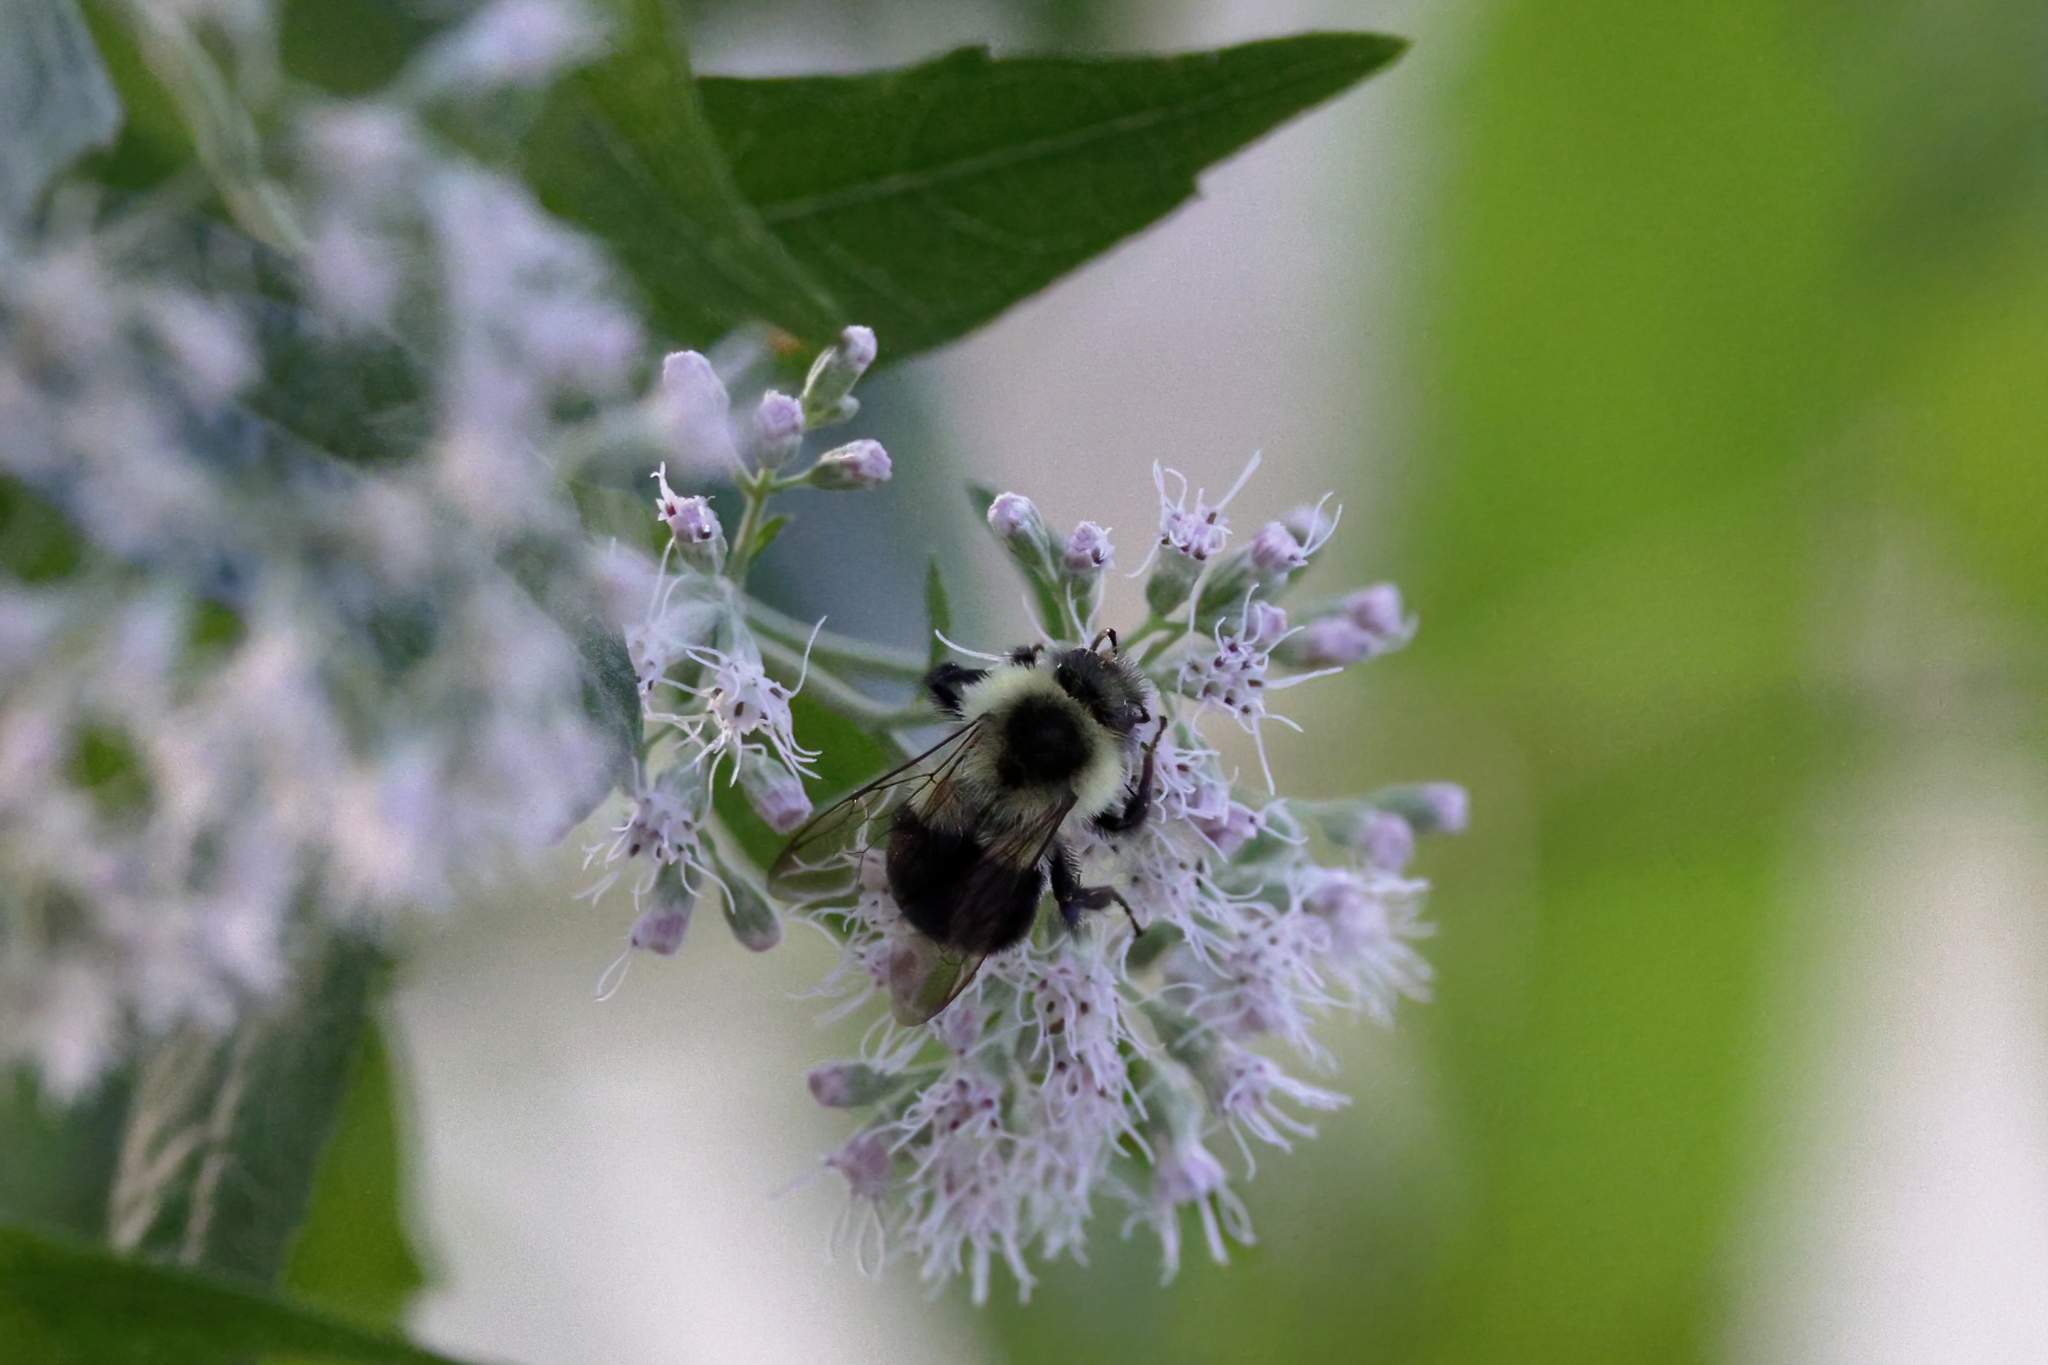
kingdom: Animalia
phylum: Arthropoda
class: Insecta
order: Hymenoptera
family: Apidae
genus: Bombus
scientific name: Bombus impatiens
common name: Common eastern bumble bee
